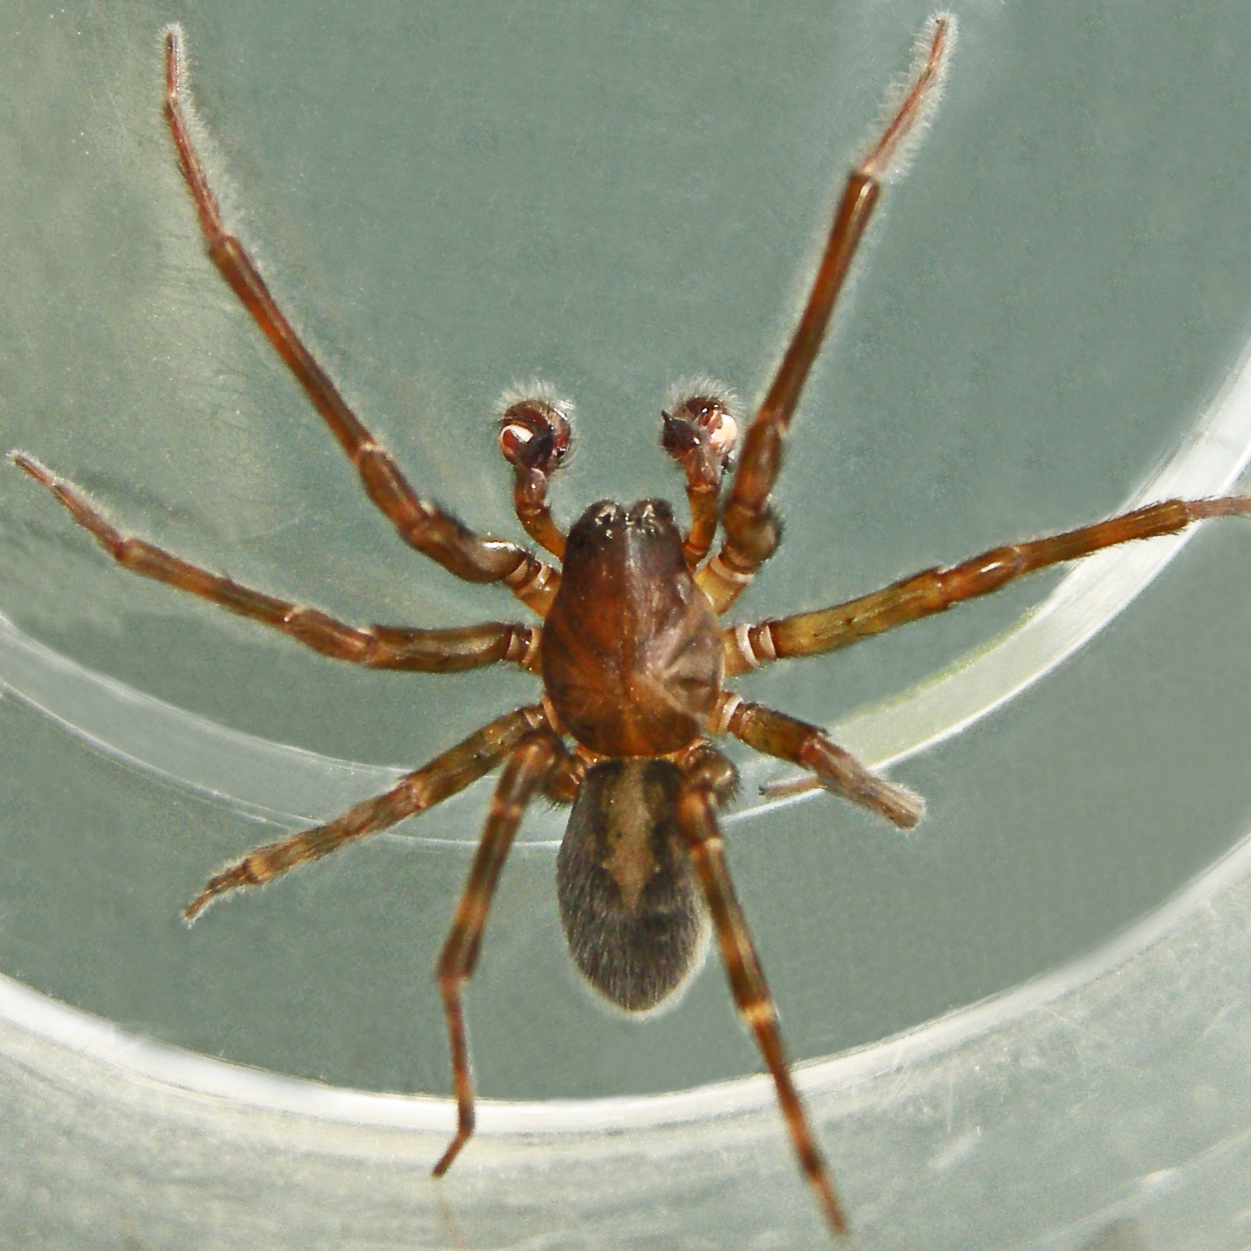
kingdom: Animalia
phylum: Arthropoda
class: Arachnida
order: Araneae
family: Amaurobiidae
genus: Amaurobius
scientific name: Amaurobius ferox
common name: Black laceweaver
